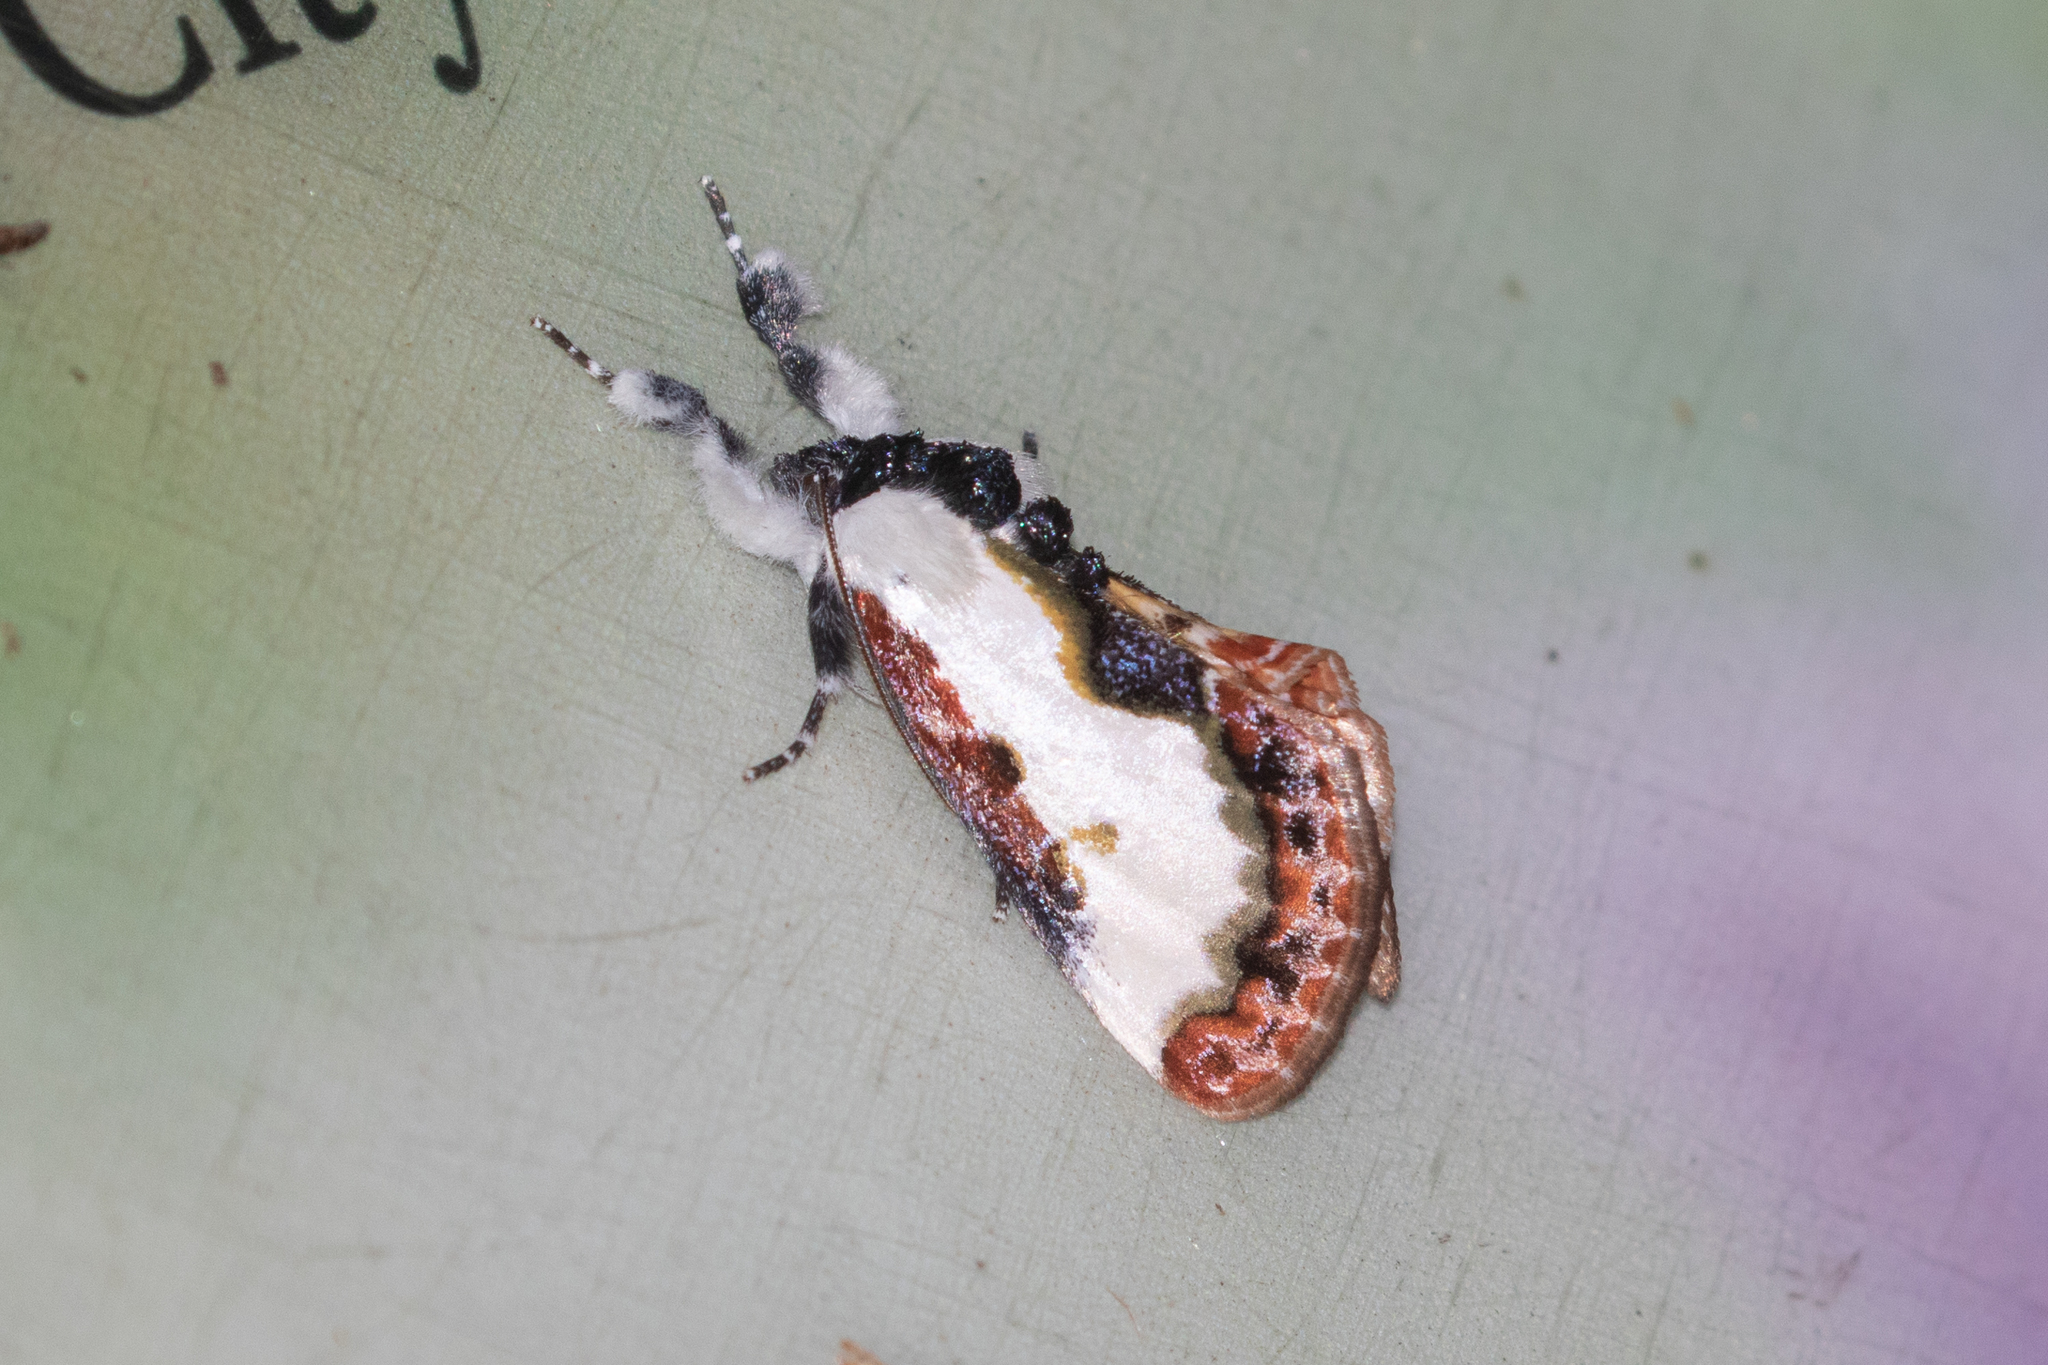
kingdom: Animalia
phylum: Arthropoda
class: Insecta
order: Lepidoptera
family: Noctuidae
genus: Eudryas
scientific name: Eudryas unio
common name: Pearly wood-nymph
